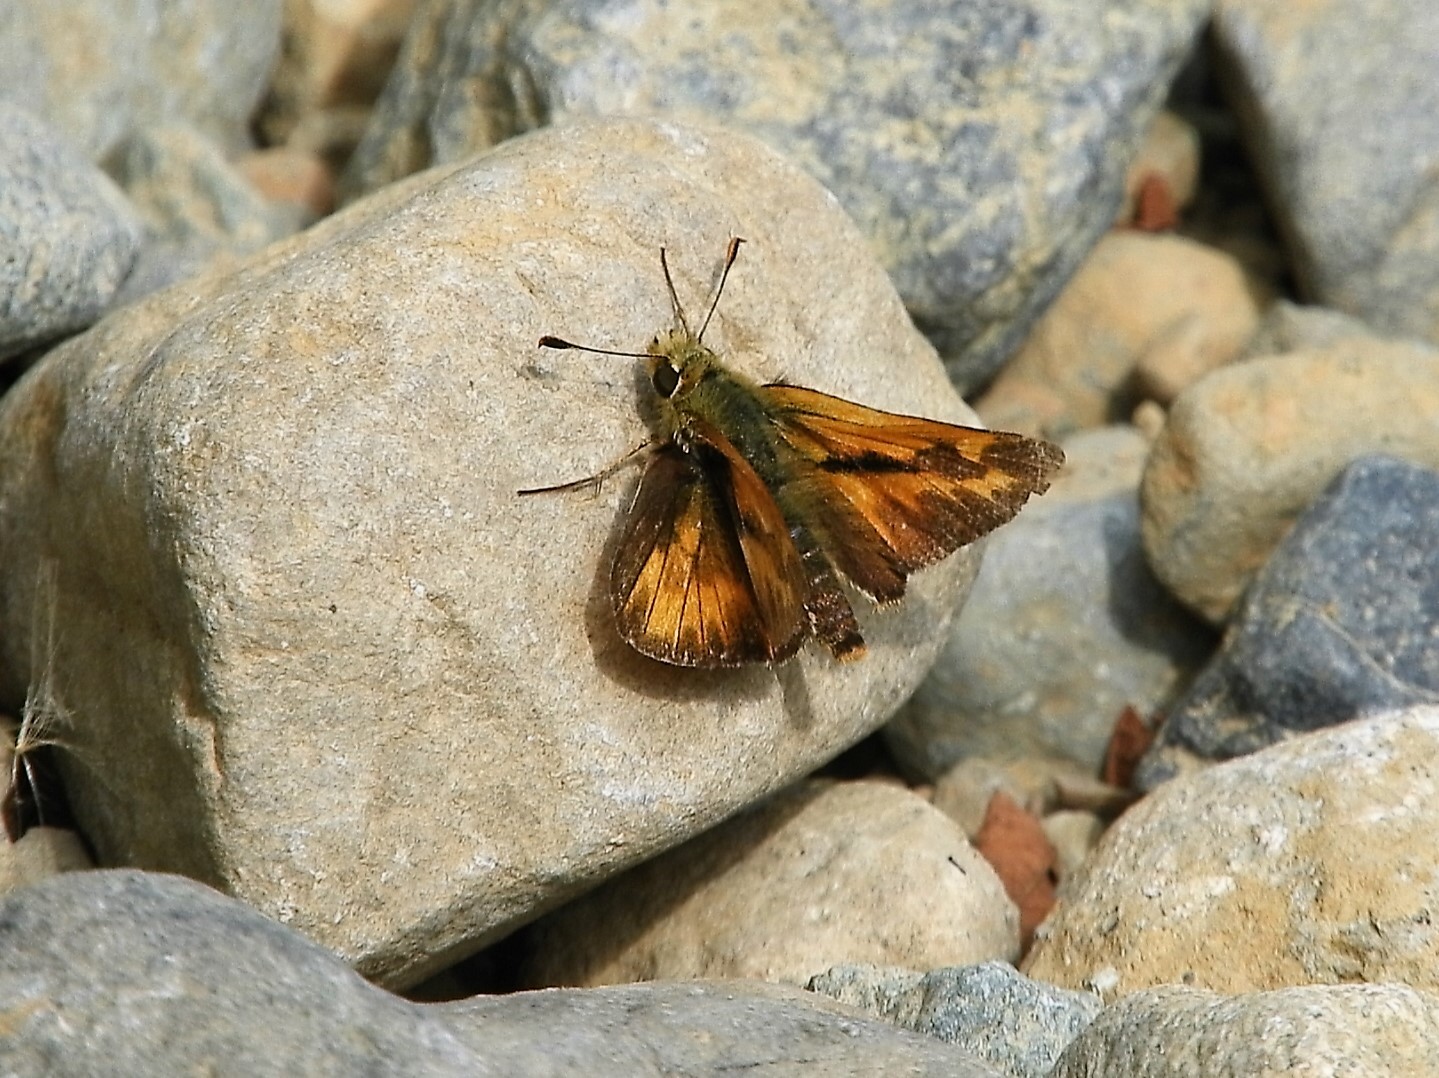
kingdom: Animalia
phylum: Arthropoda
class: Insecta
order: Lepidoptera
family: Hesperiidae
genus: Ochlodes
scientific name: Ochlodes sylvanoides
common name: Woodland skipper
